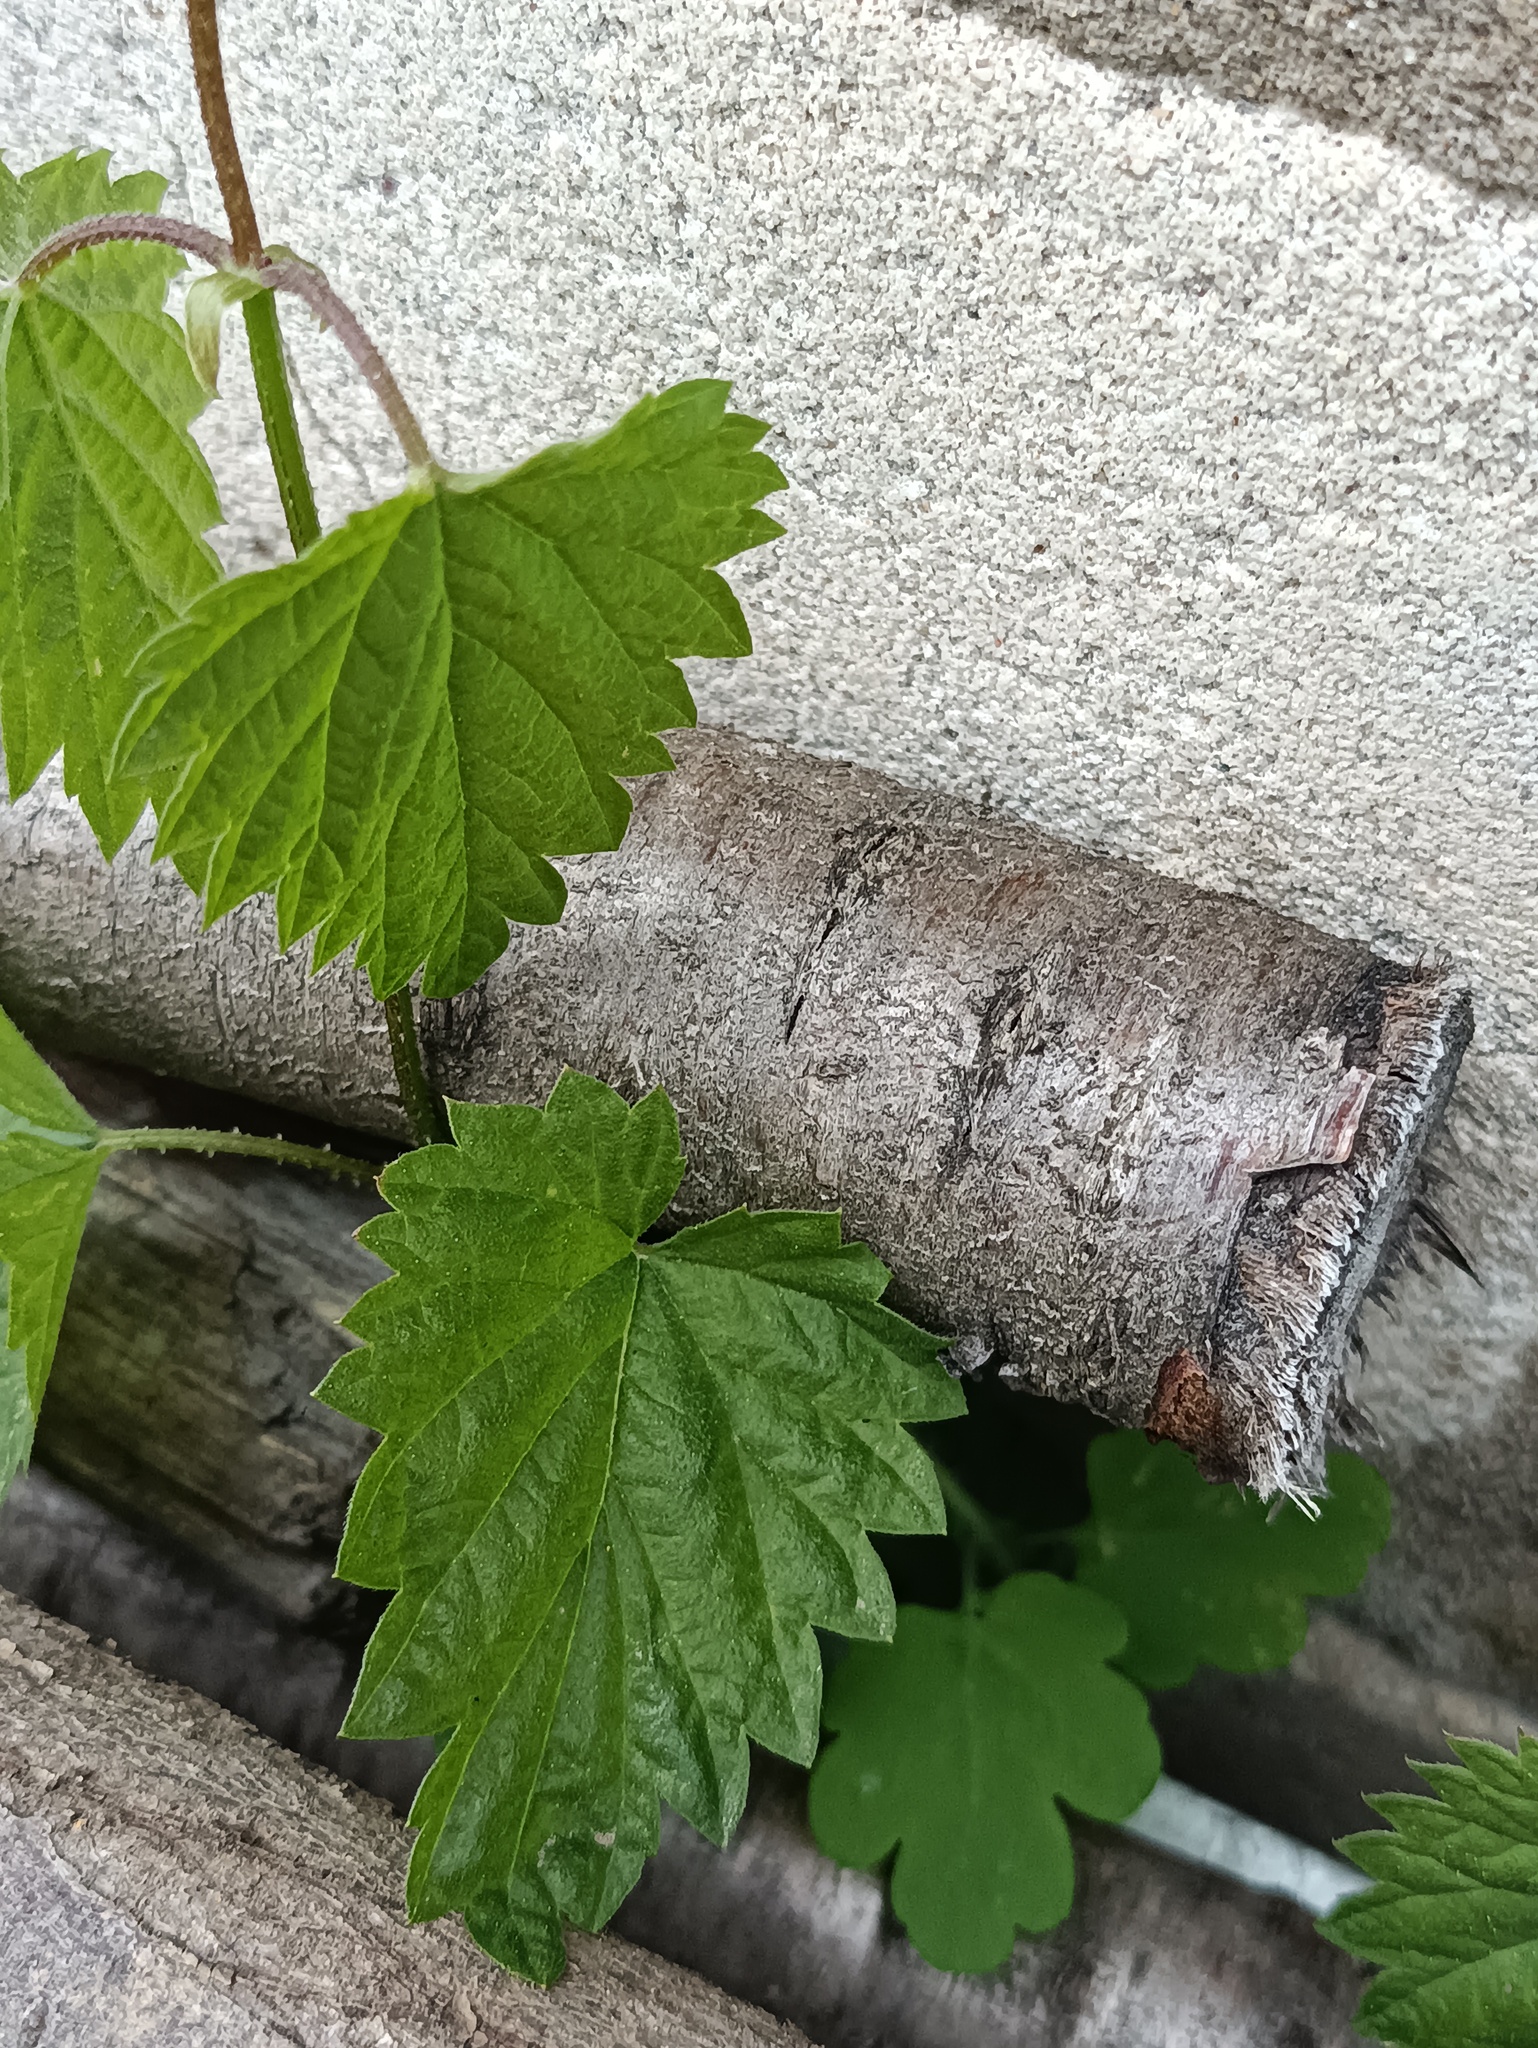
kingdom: Plantae
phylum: Tracheophyta
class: Magnoliopsida
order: Rosales
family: Cannabaceae
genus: Humulus
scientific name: Humulus lupulus
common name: Hop
